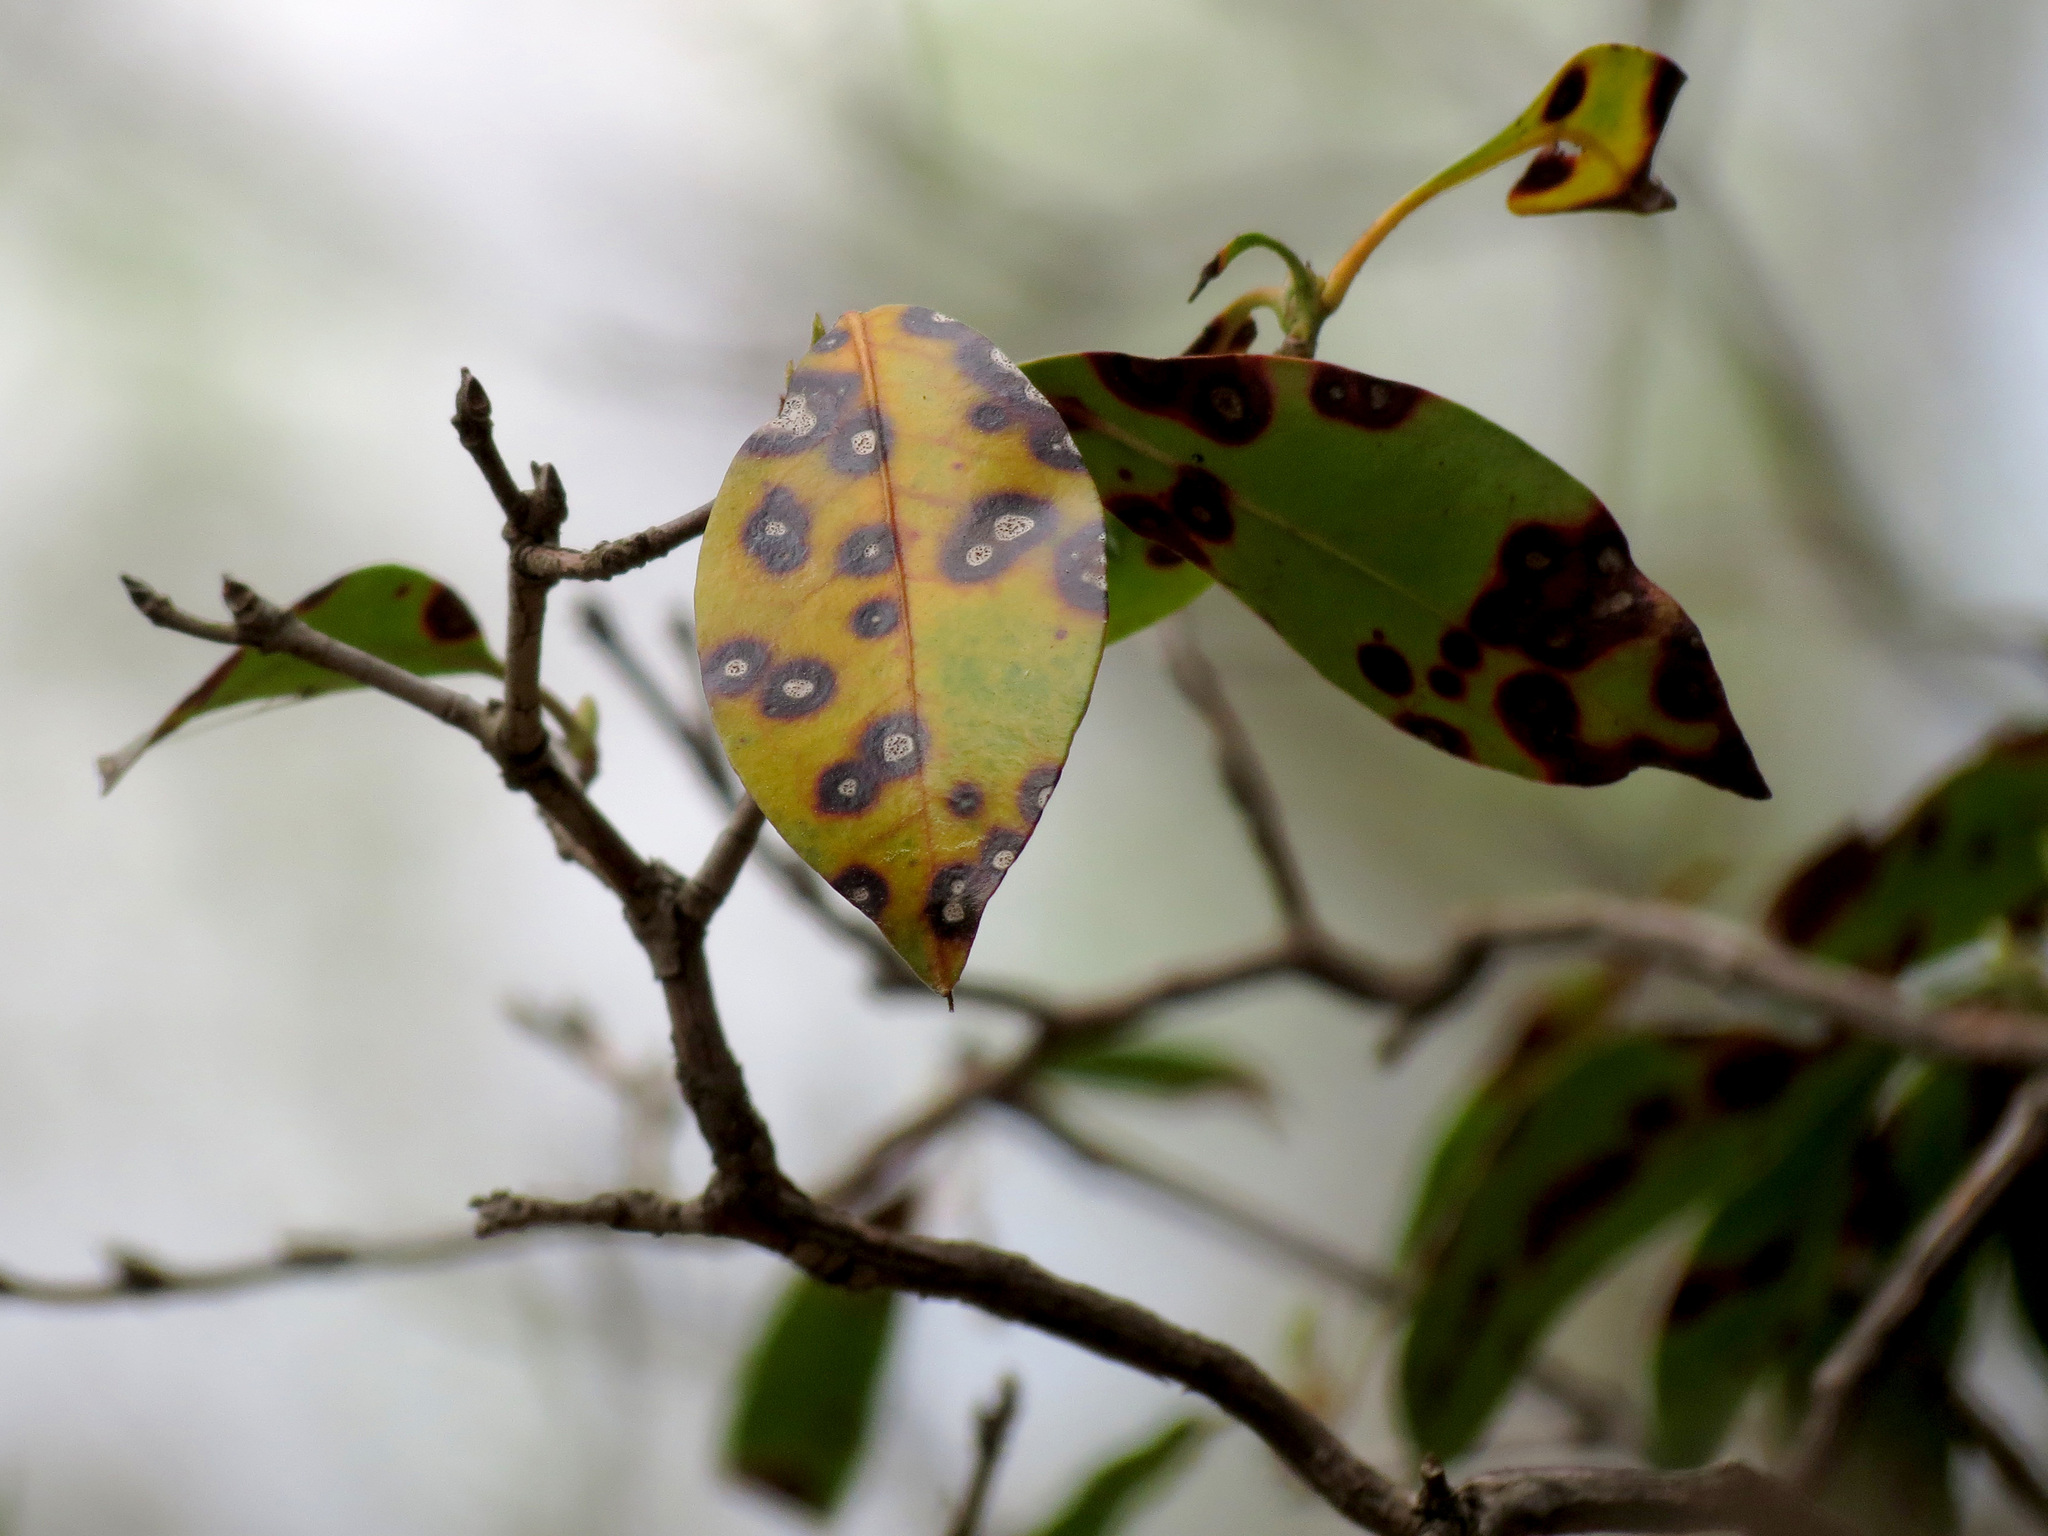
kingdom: Fungi
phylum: Ascomycota
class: Dothideomycetes
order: Mycosphaerellales
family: Mycosphaerellaceae
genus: Mycosphaerella
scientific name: Mycosphaerella colorata
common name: Mountain laurel leaf spot
